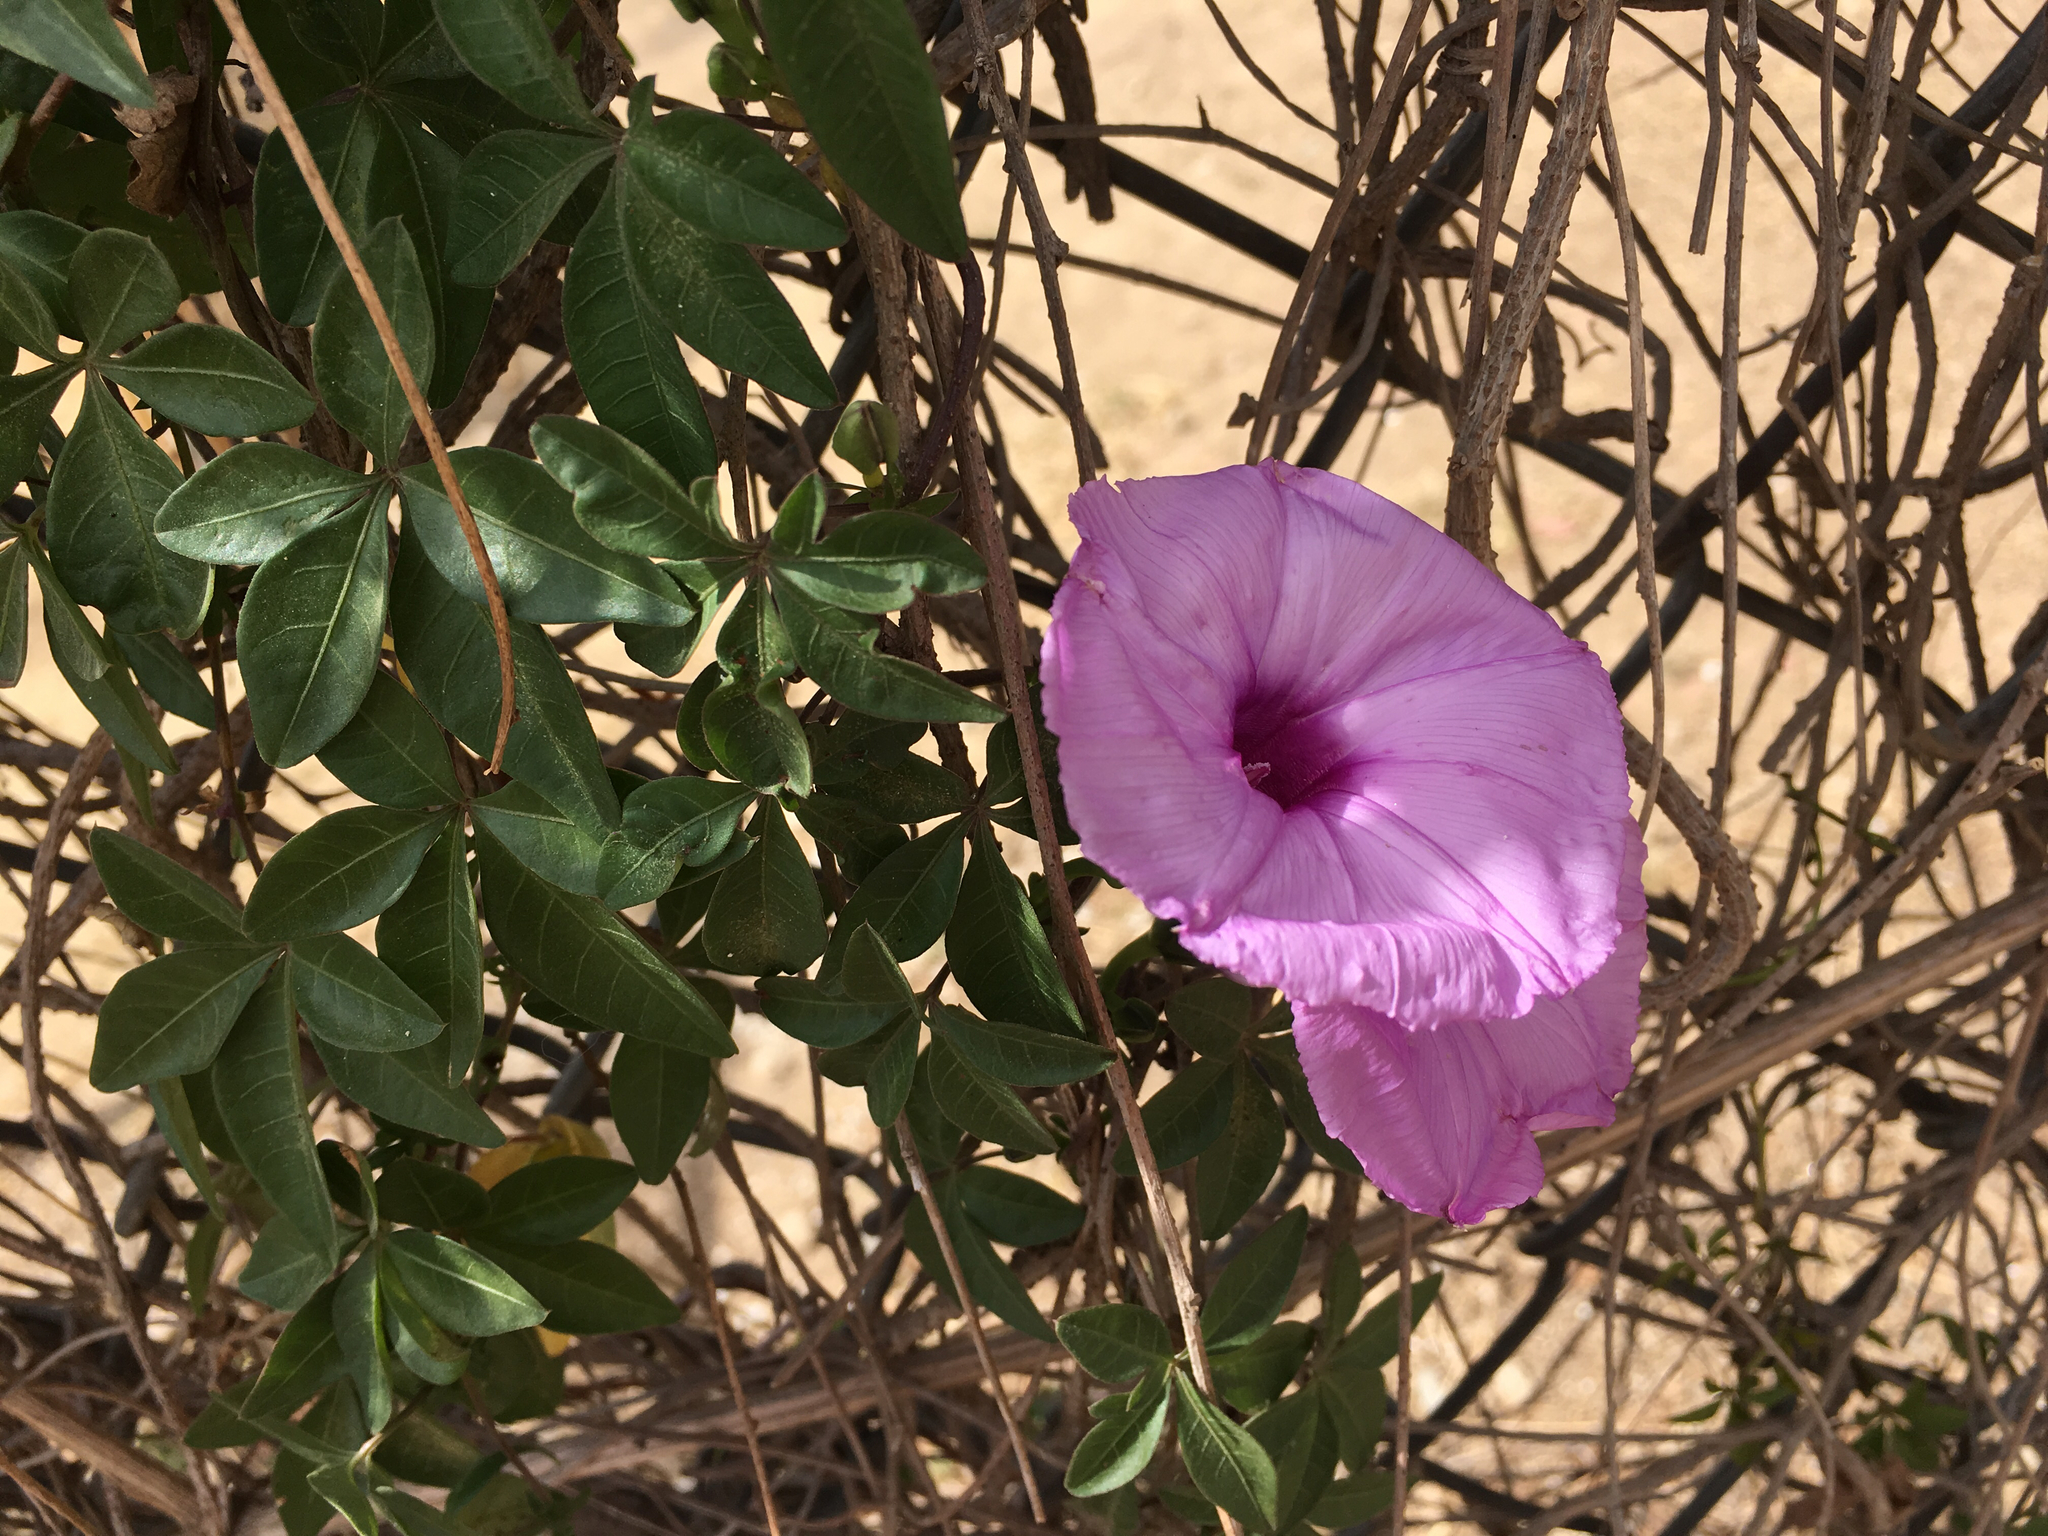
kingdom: Plantae
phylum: Tracheophyta
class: Magnoliopsida
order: Solanales
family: Convolvulaceae
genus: Ipomoea
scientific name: Ipomoea cairica
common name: Mile a minute vine
